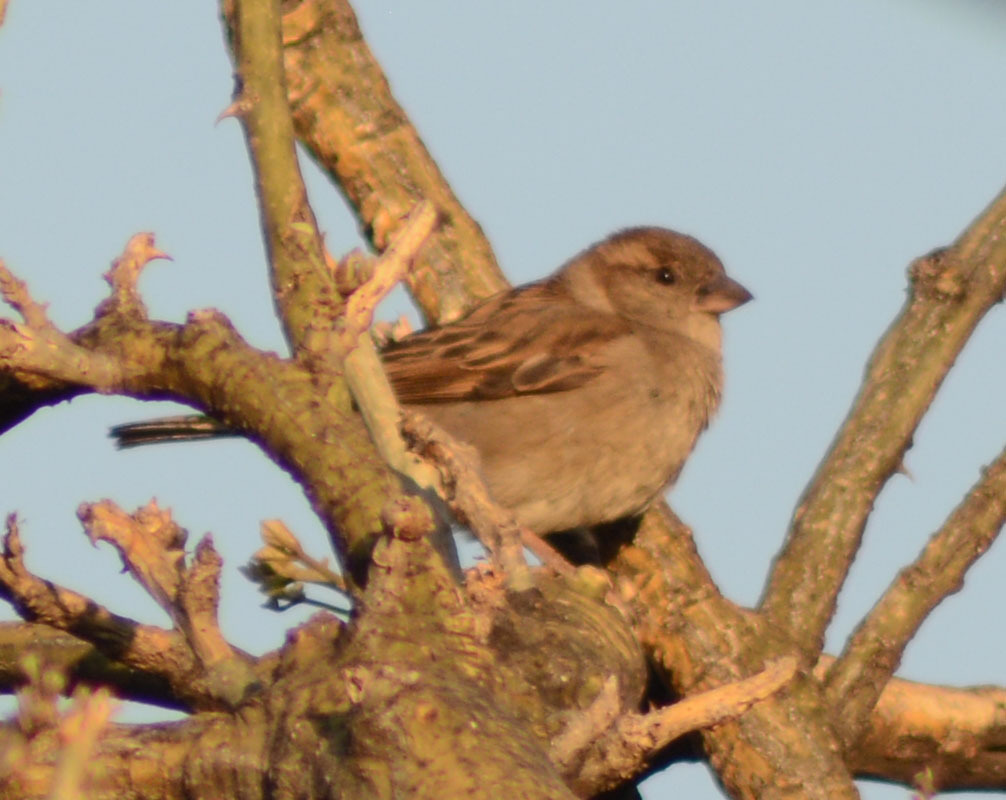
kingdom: Animalia
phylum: Chordata
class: Aves
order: Passeriformes
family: Passeridae
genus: Passer
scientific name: Passer domesticus
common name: House sparrow
